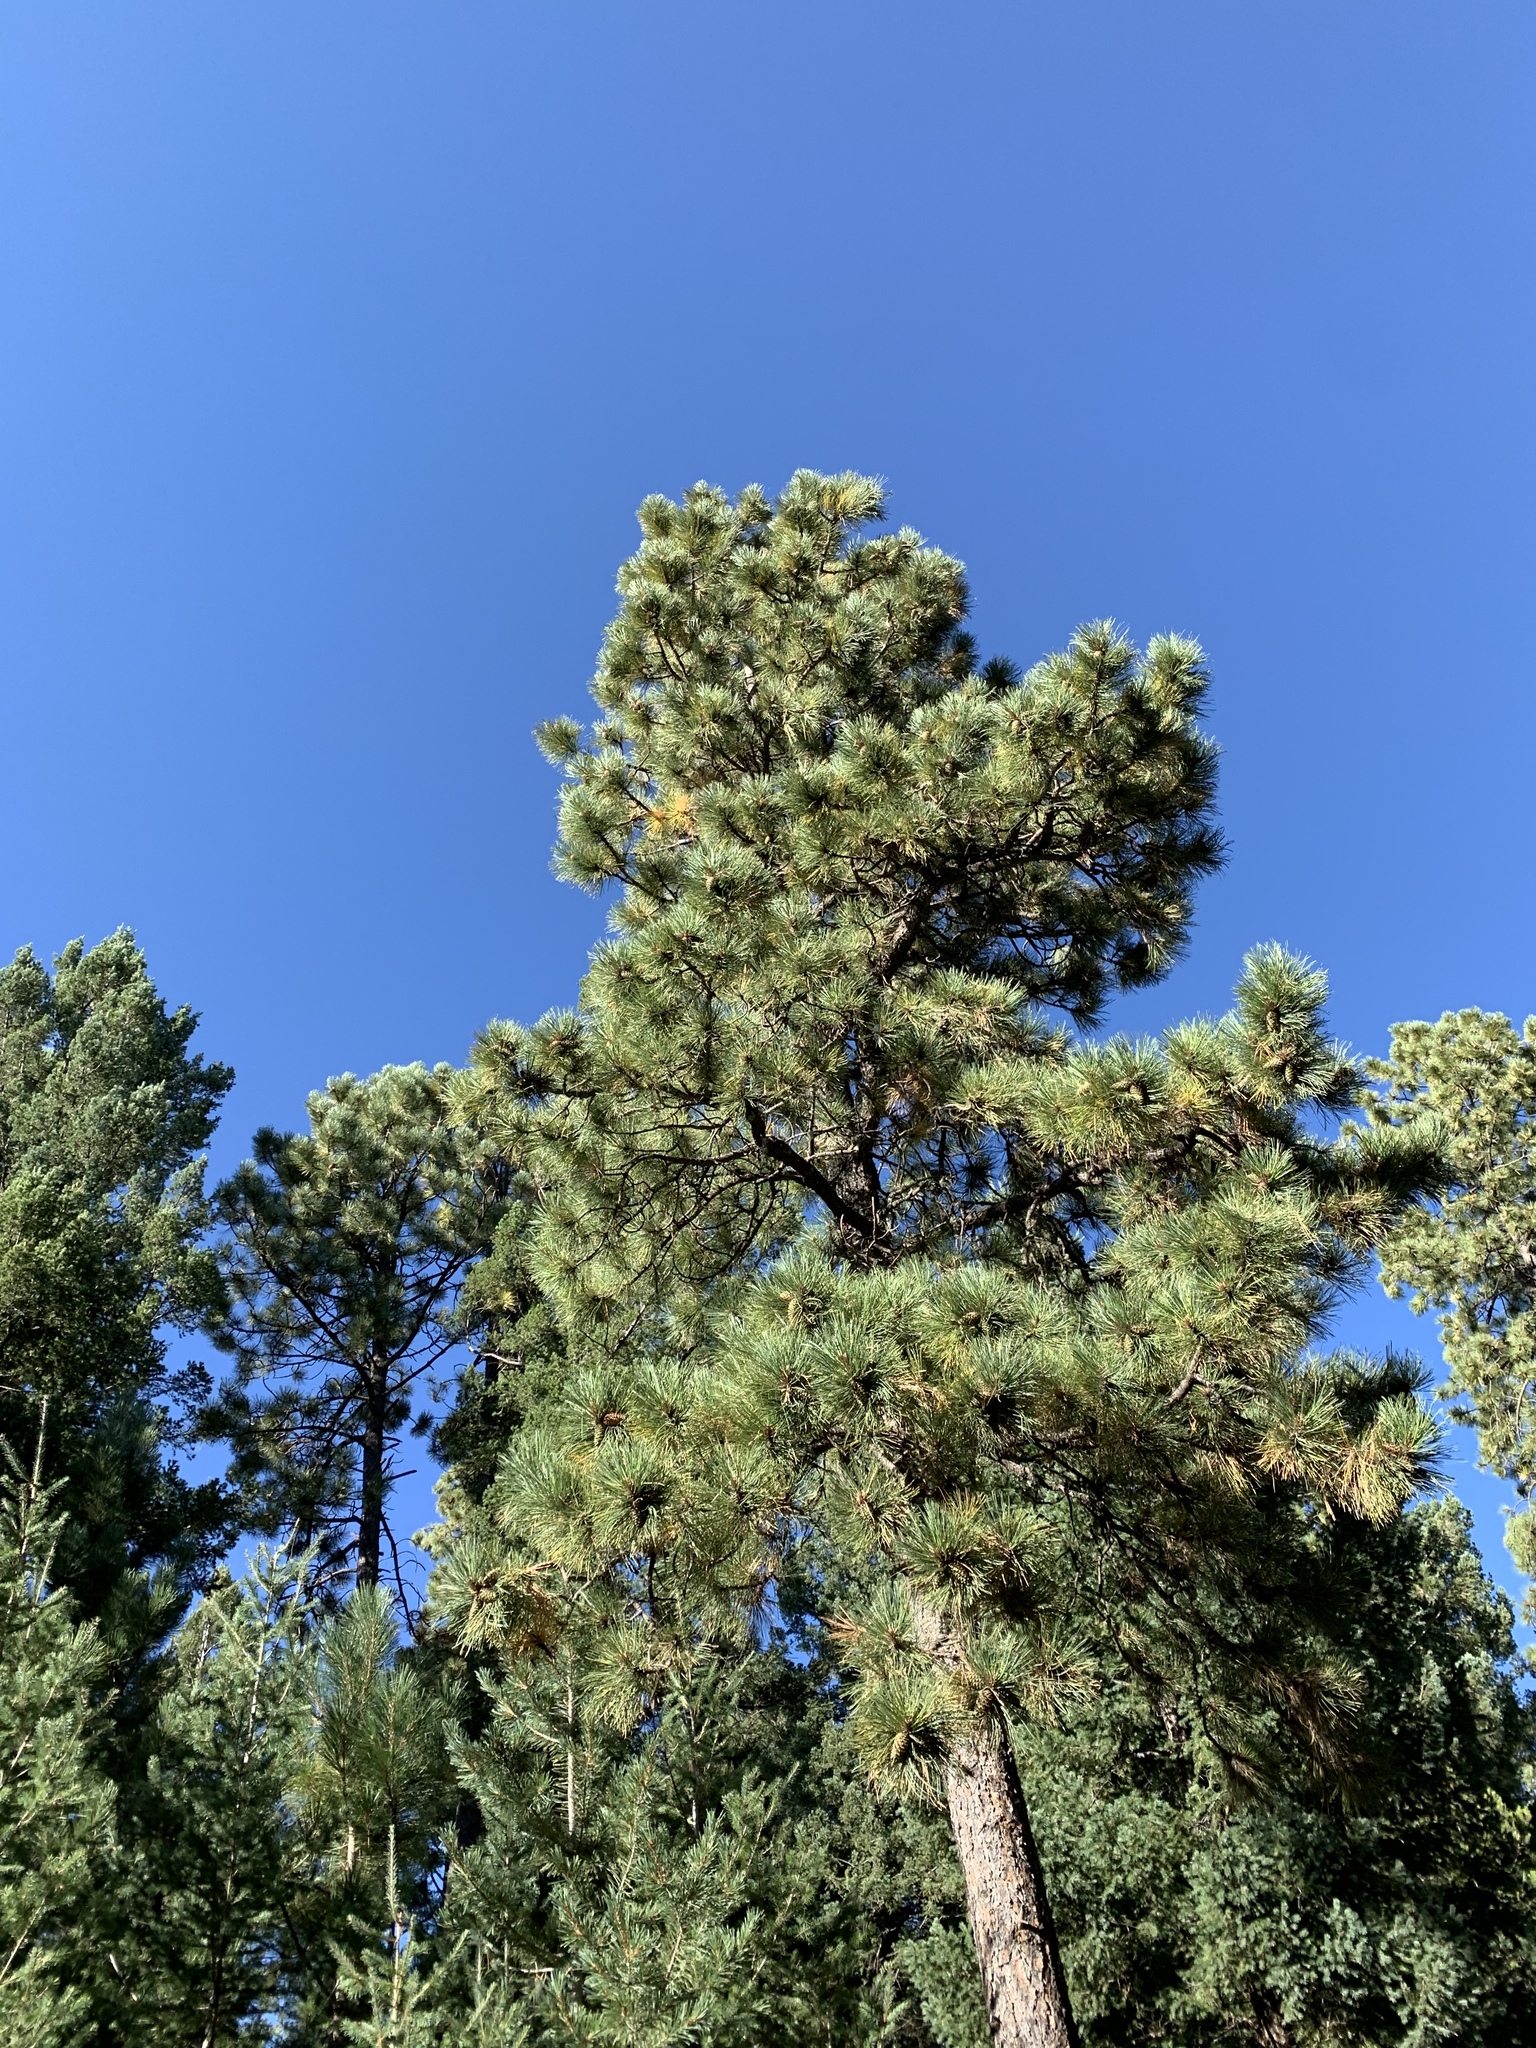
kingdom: Plantae
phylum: Tracheophyta
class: Pinopsida
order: Pinales
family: Pinaceae
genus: Pinus
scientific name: Pinus ponderosa
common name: Western yellow-pine
